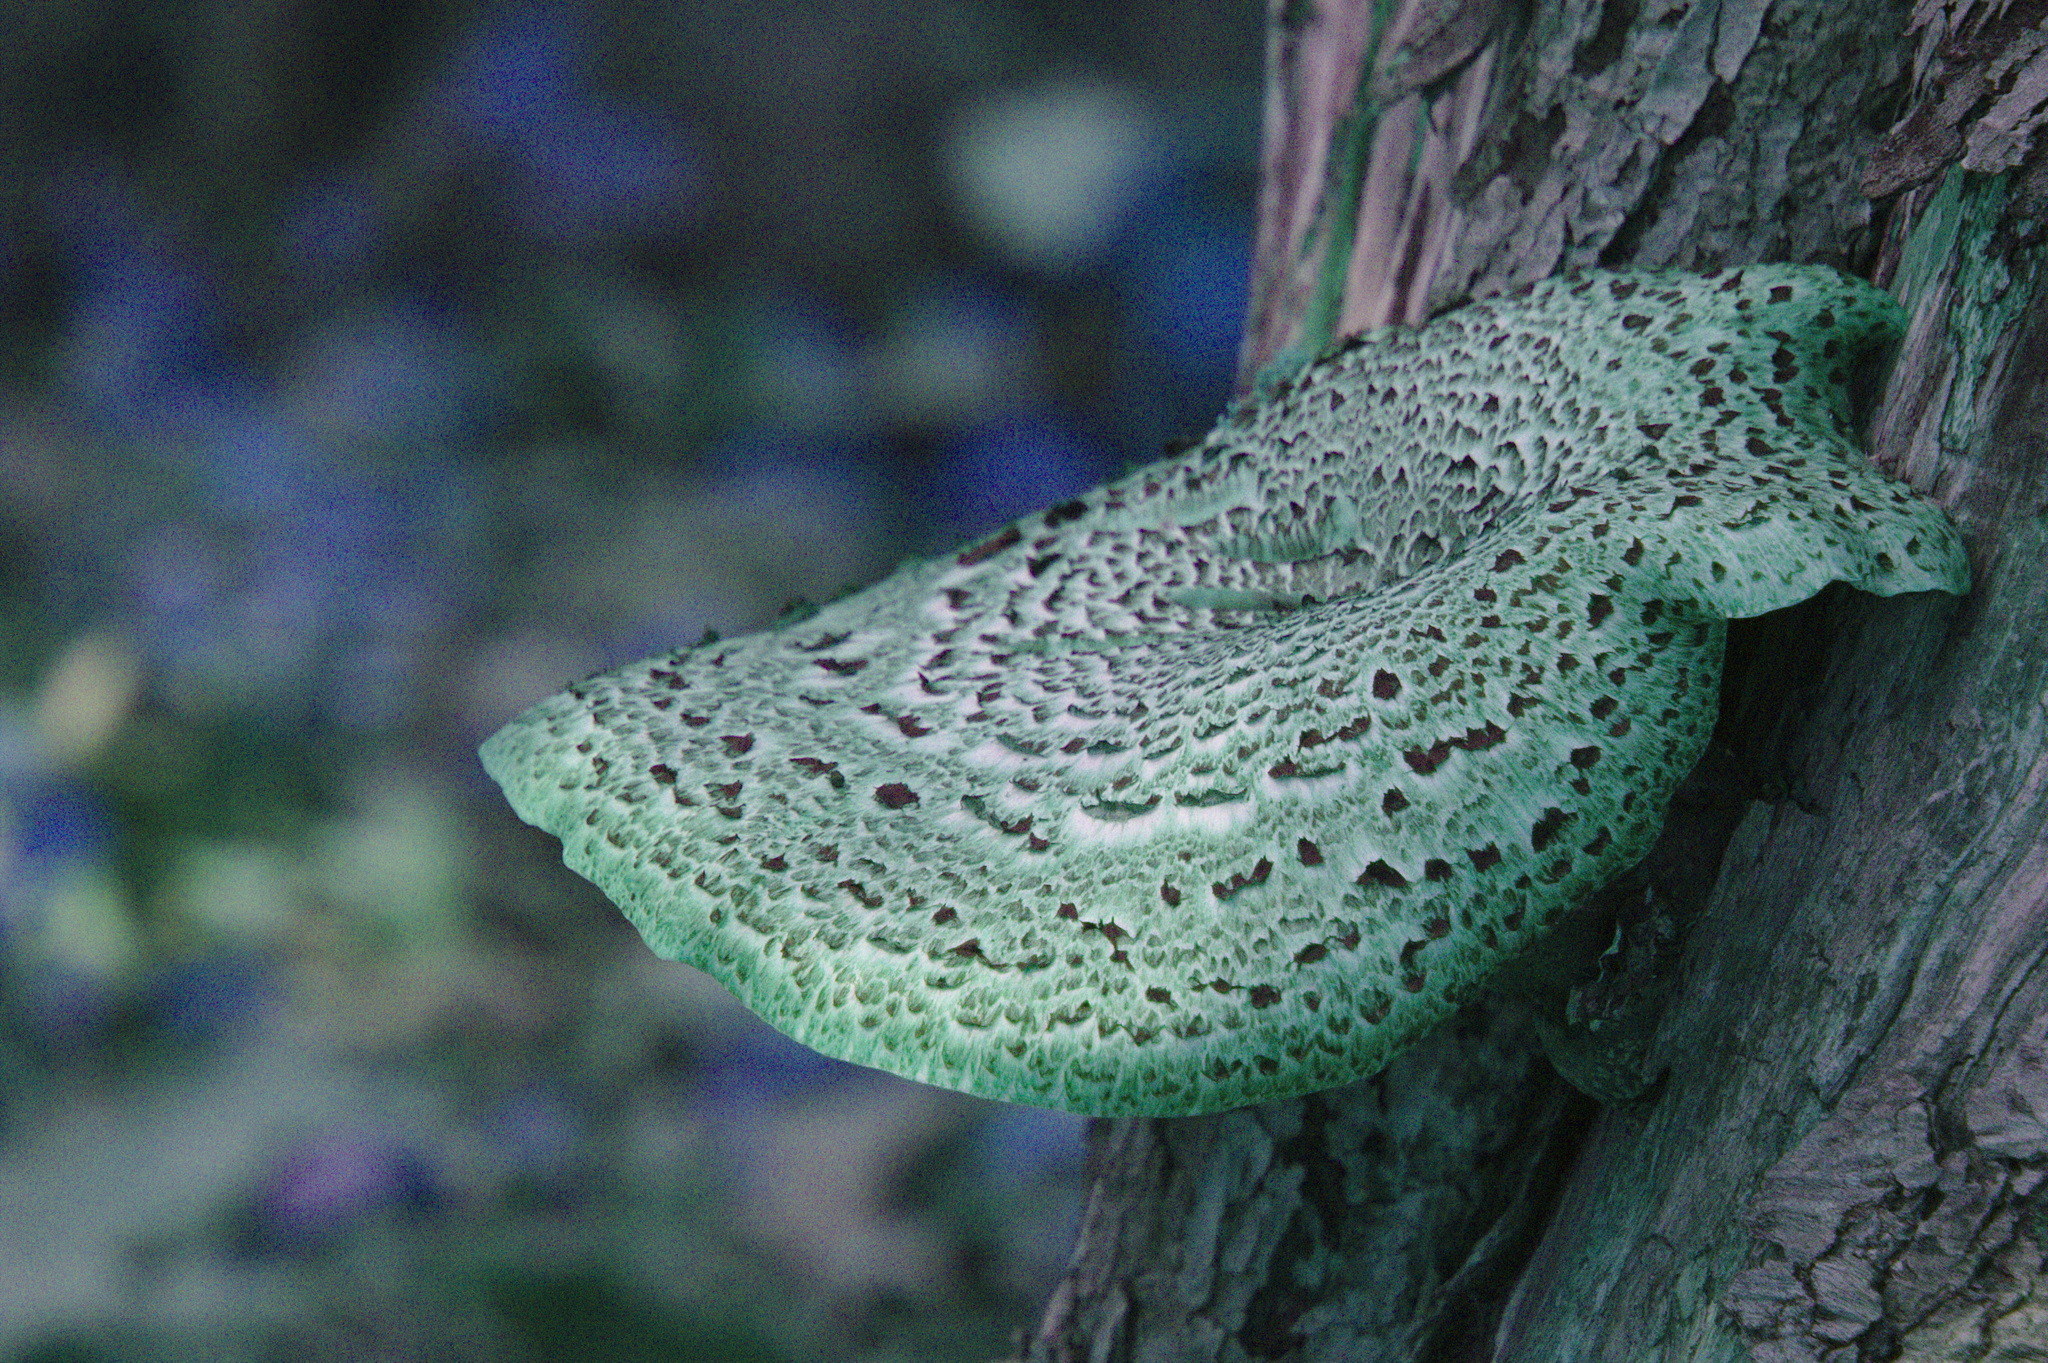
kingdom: Fungi
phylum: Basidiomycota
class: Agaricomycetes
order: Polyporales
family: Polyporaceae
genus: Cerioporus
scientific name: Cerioporus squamosus
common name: Dryad's saddle
